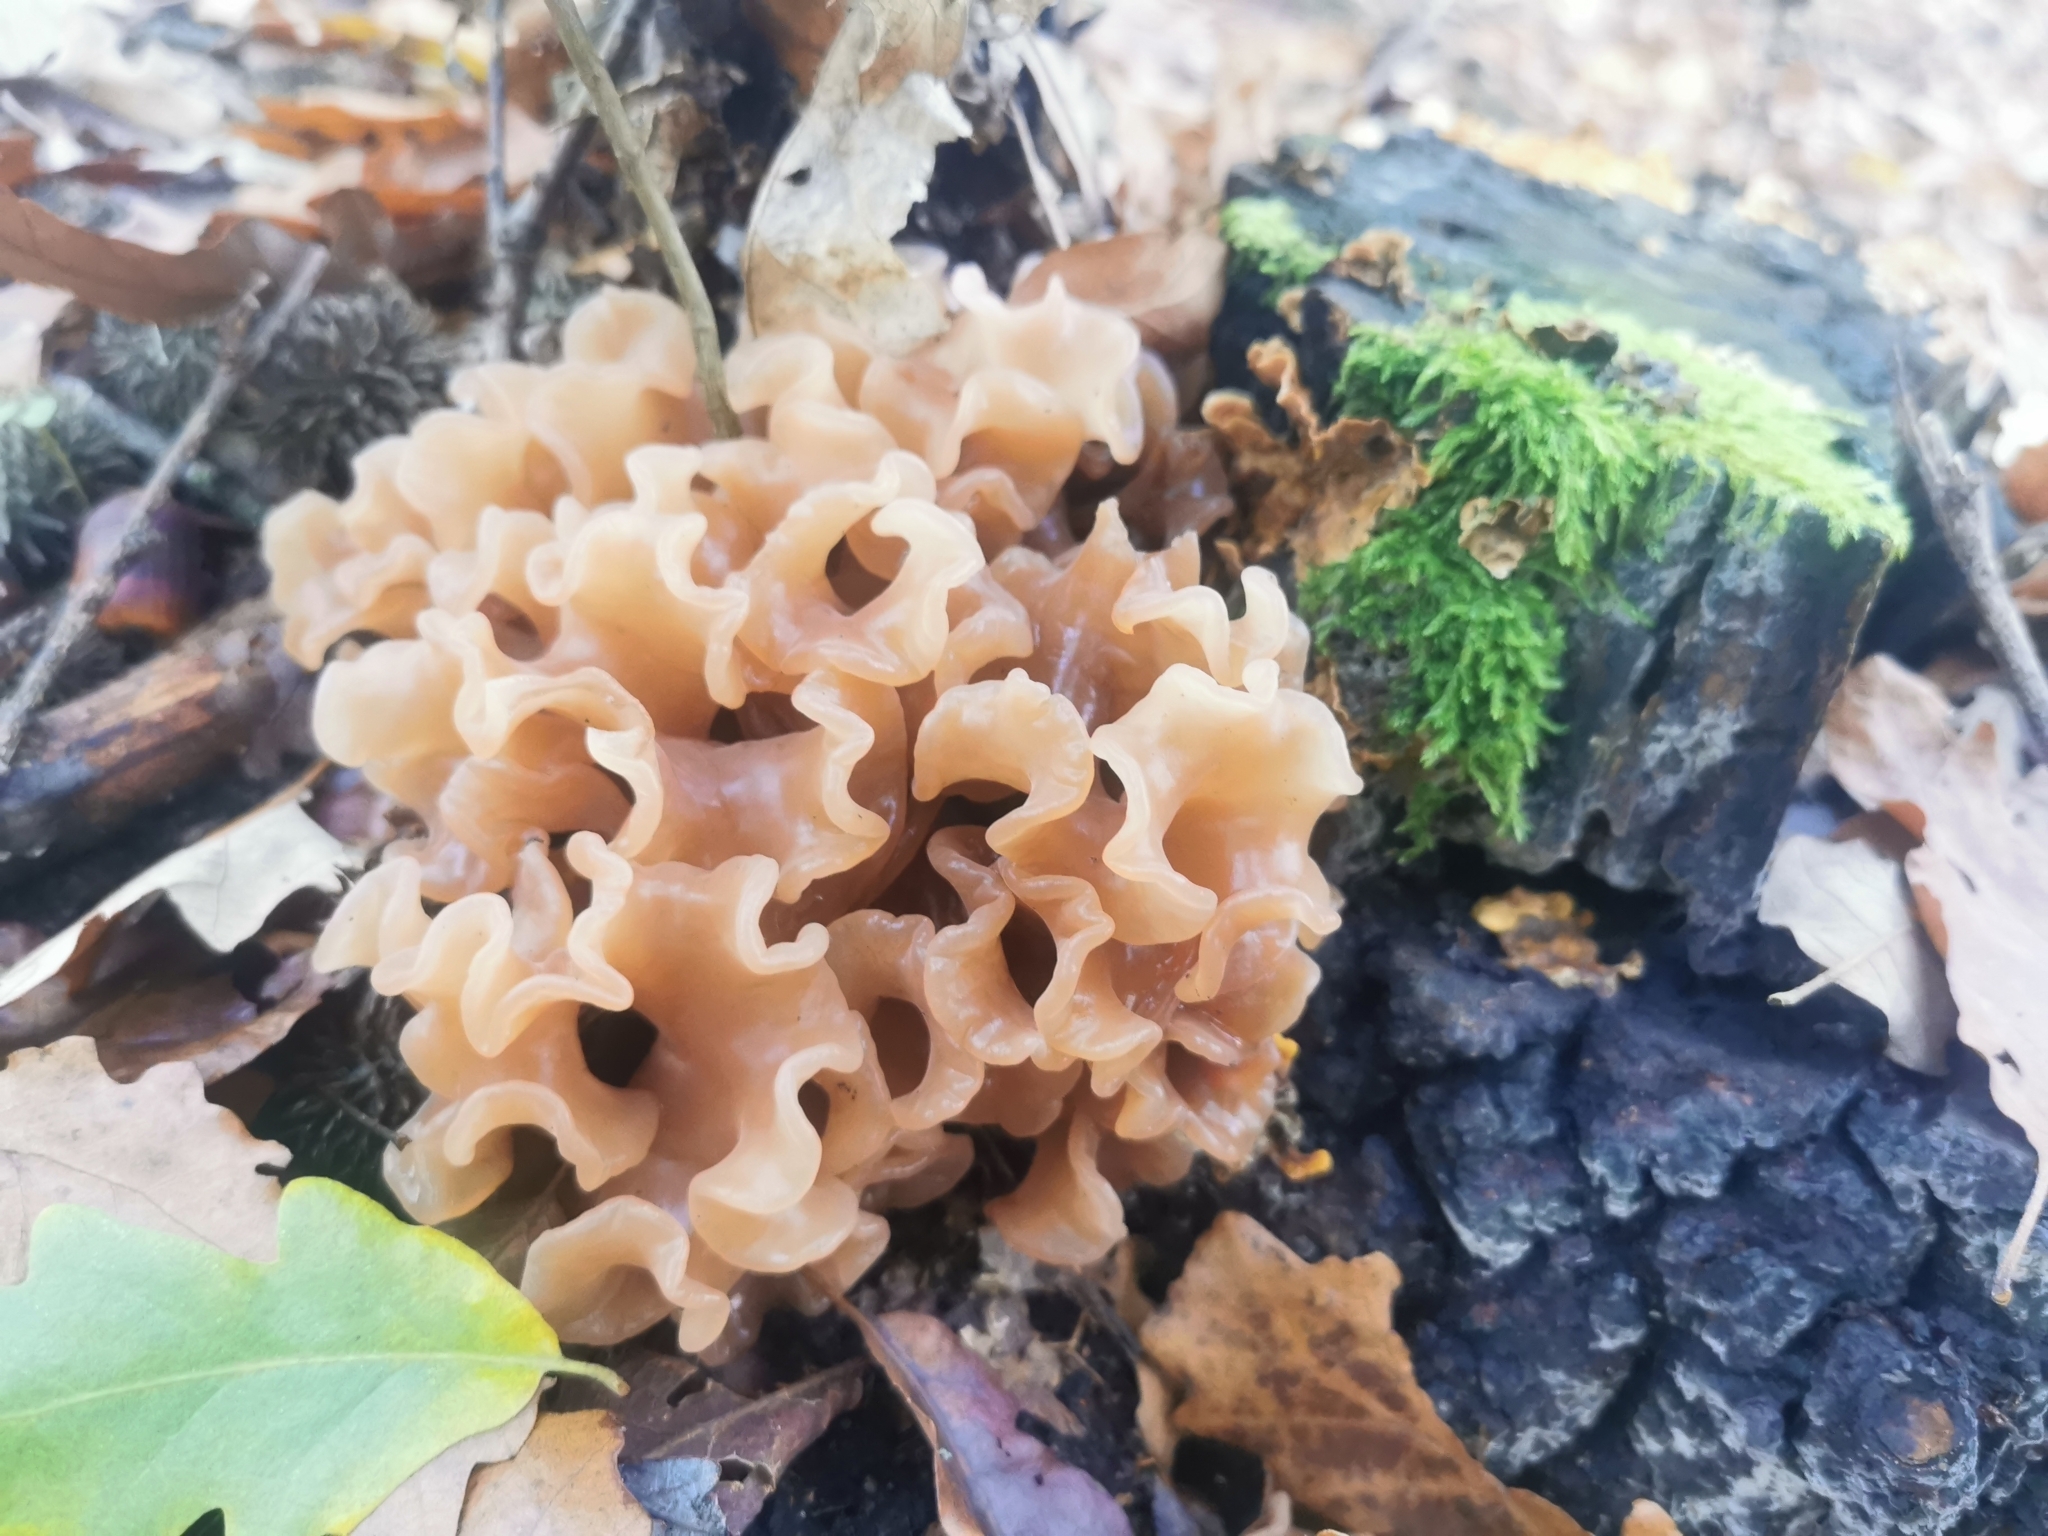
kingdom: Fungi
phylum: Basidiomycota
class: Tremellomycetes
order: Tremellales
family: Tremellaceae
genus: Phaeotremella
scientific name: Phaeotremella foliacea
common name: Leafy brain
